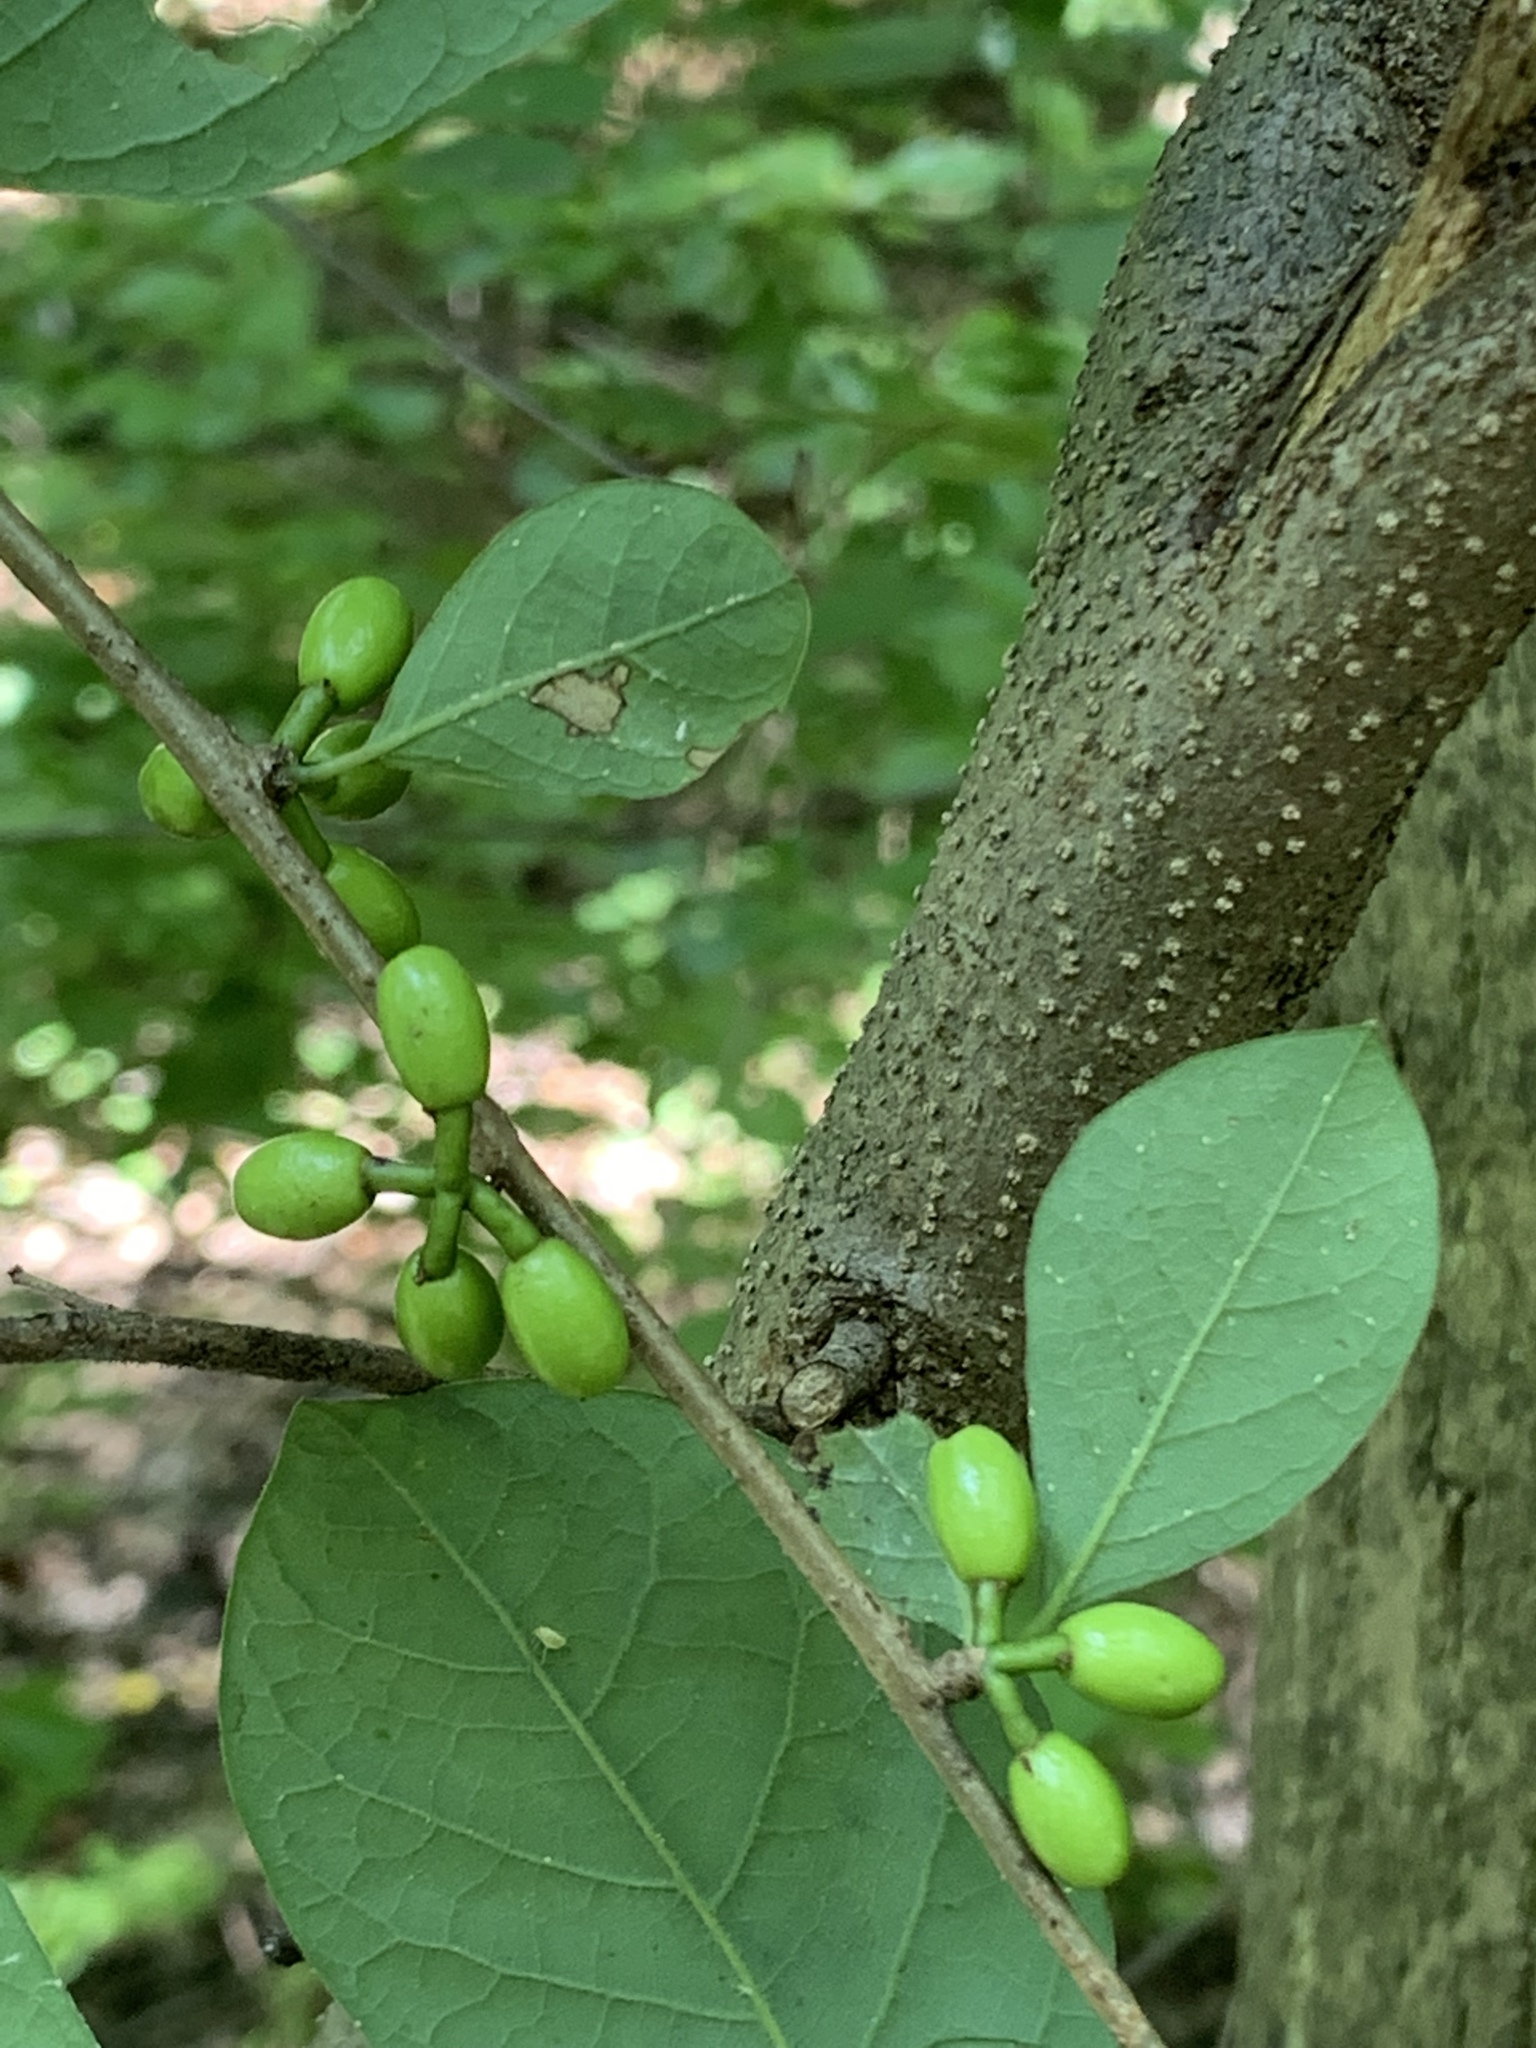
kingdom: Plantae
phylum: Tracheophyta
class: Magnoliopsida
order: Laurales
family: Lauraceae
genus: Lindera
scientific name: Lindera benzoin
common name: Spicebush
